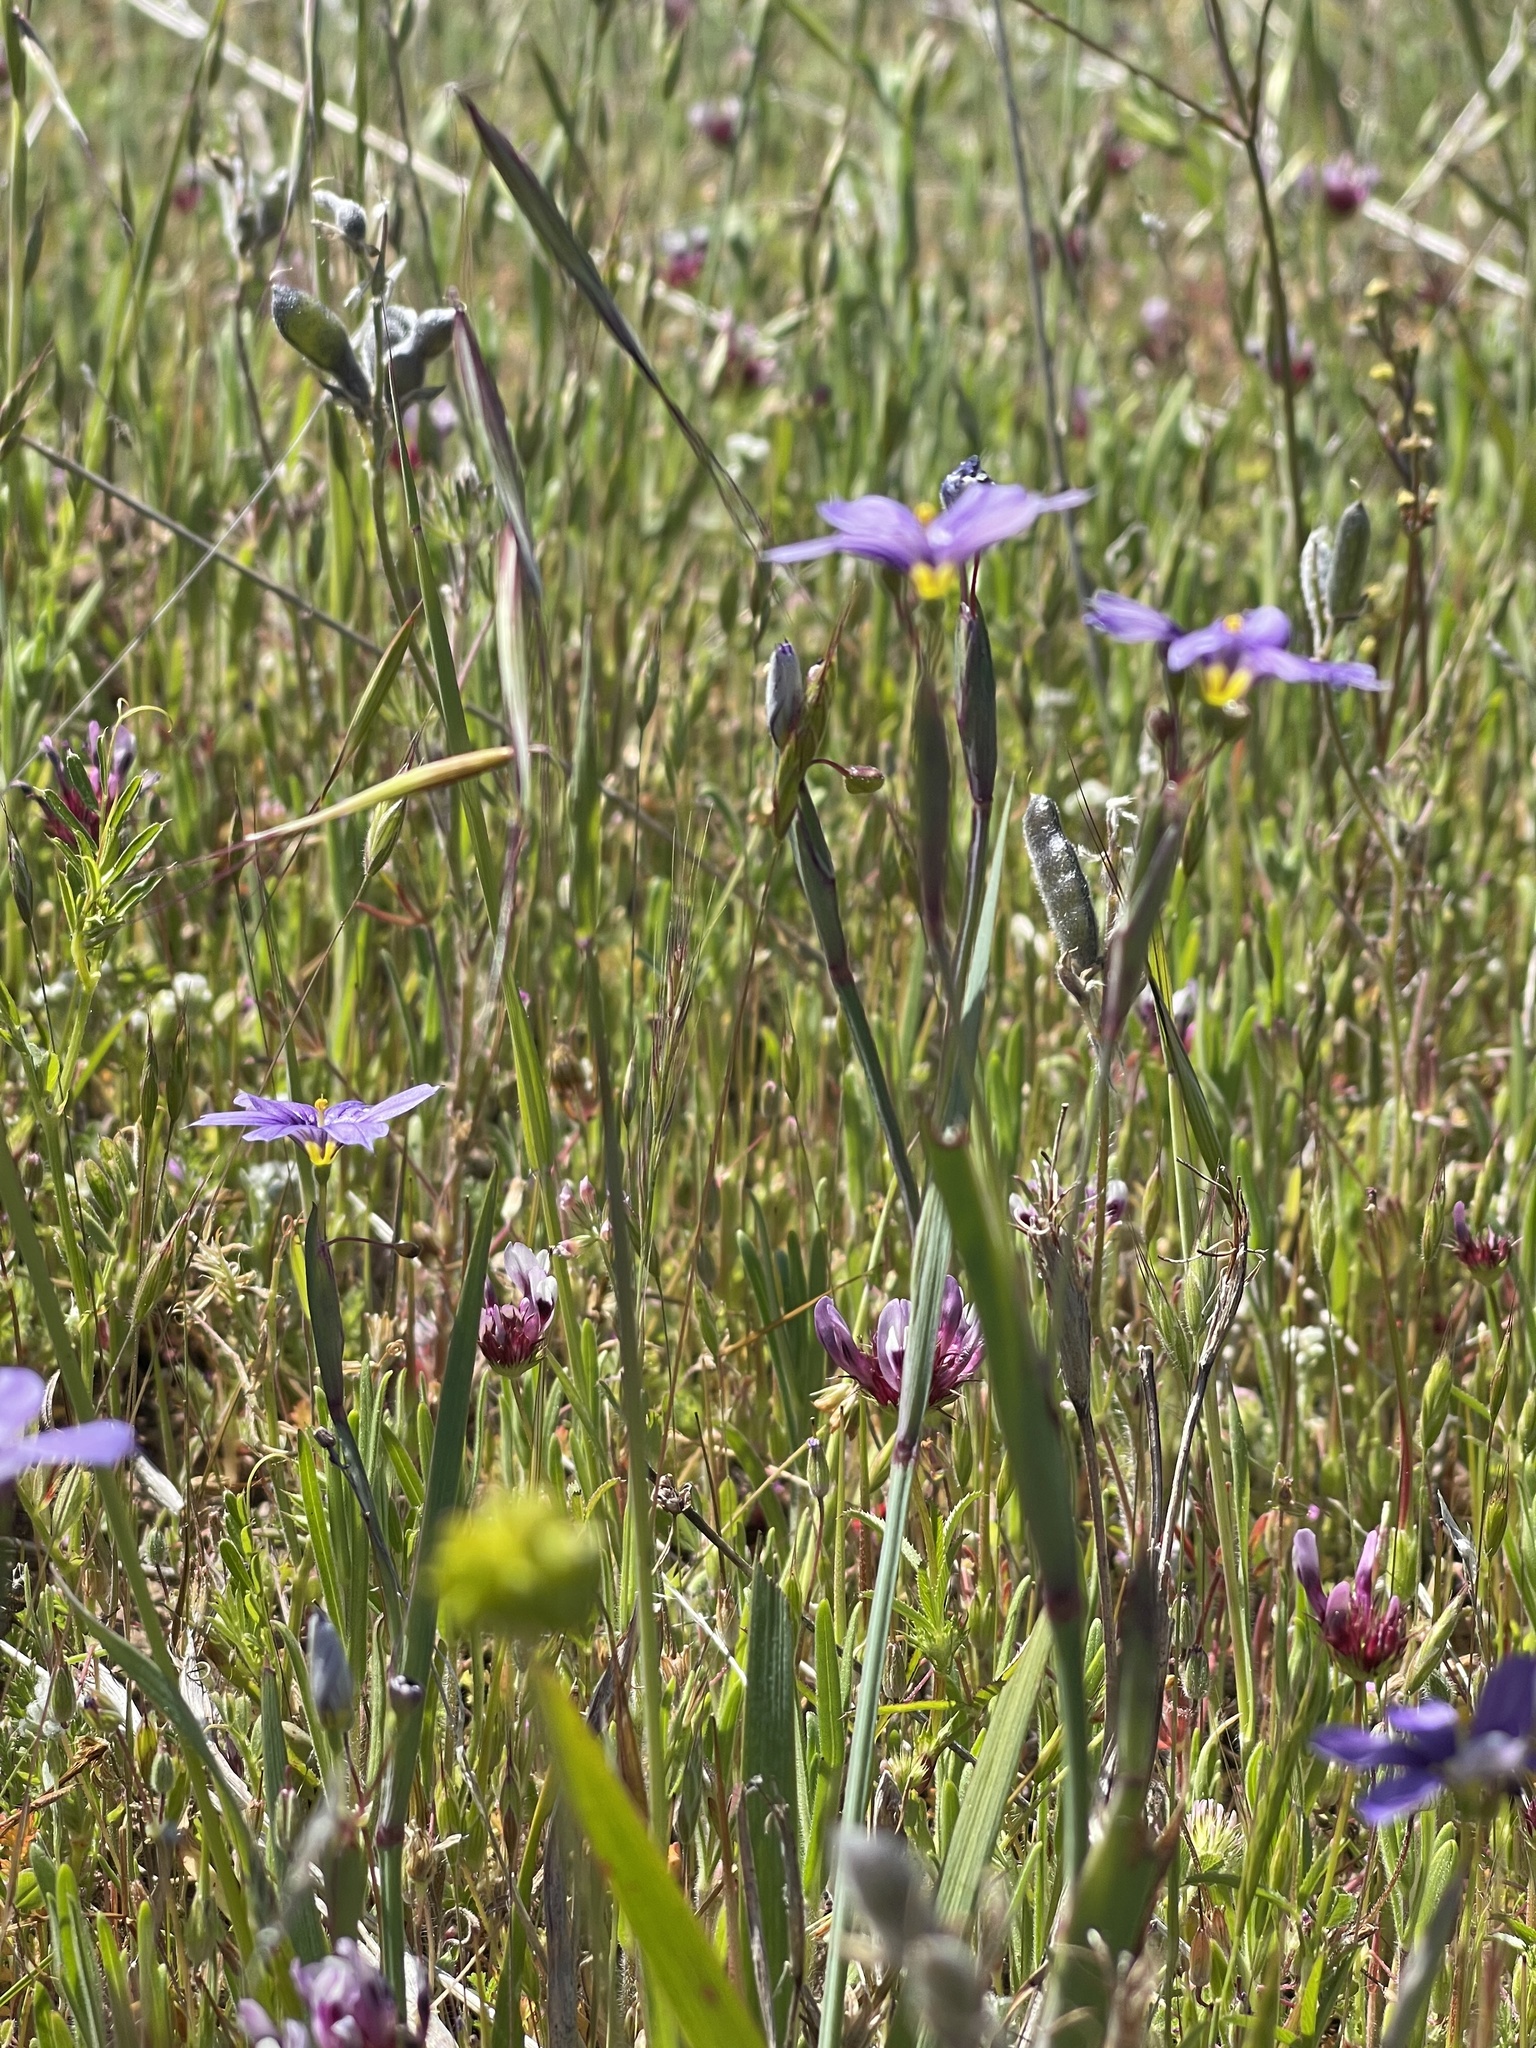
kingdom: Plantae
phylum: Tracheophyta
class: Liliopsida
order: Asparagales
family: Iridaceae
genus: Sisyrinchium
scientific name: Sisyrinchium bellum
